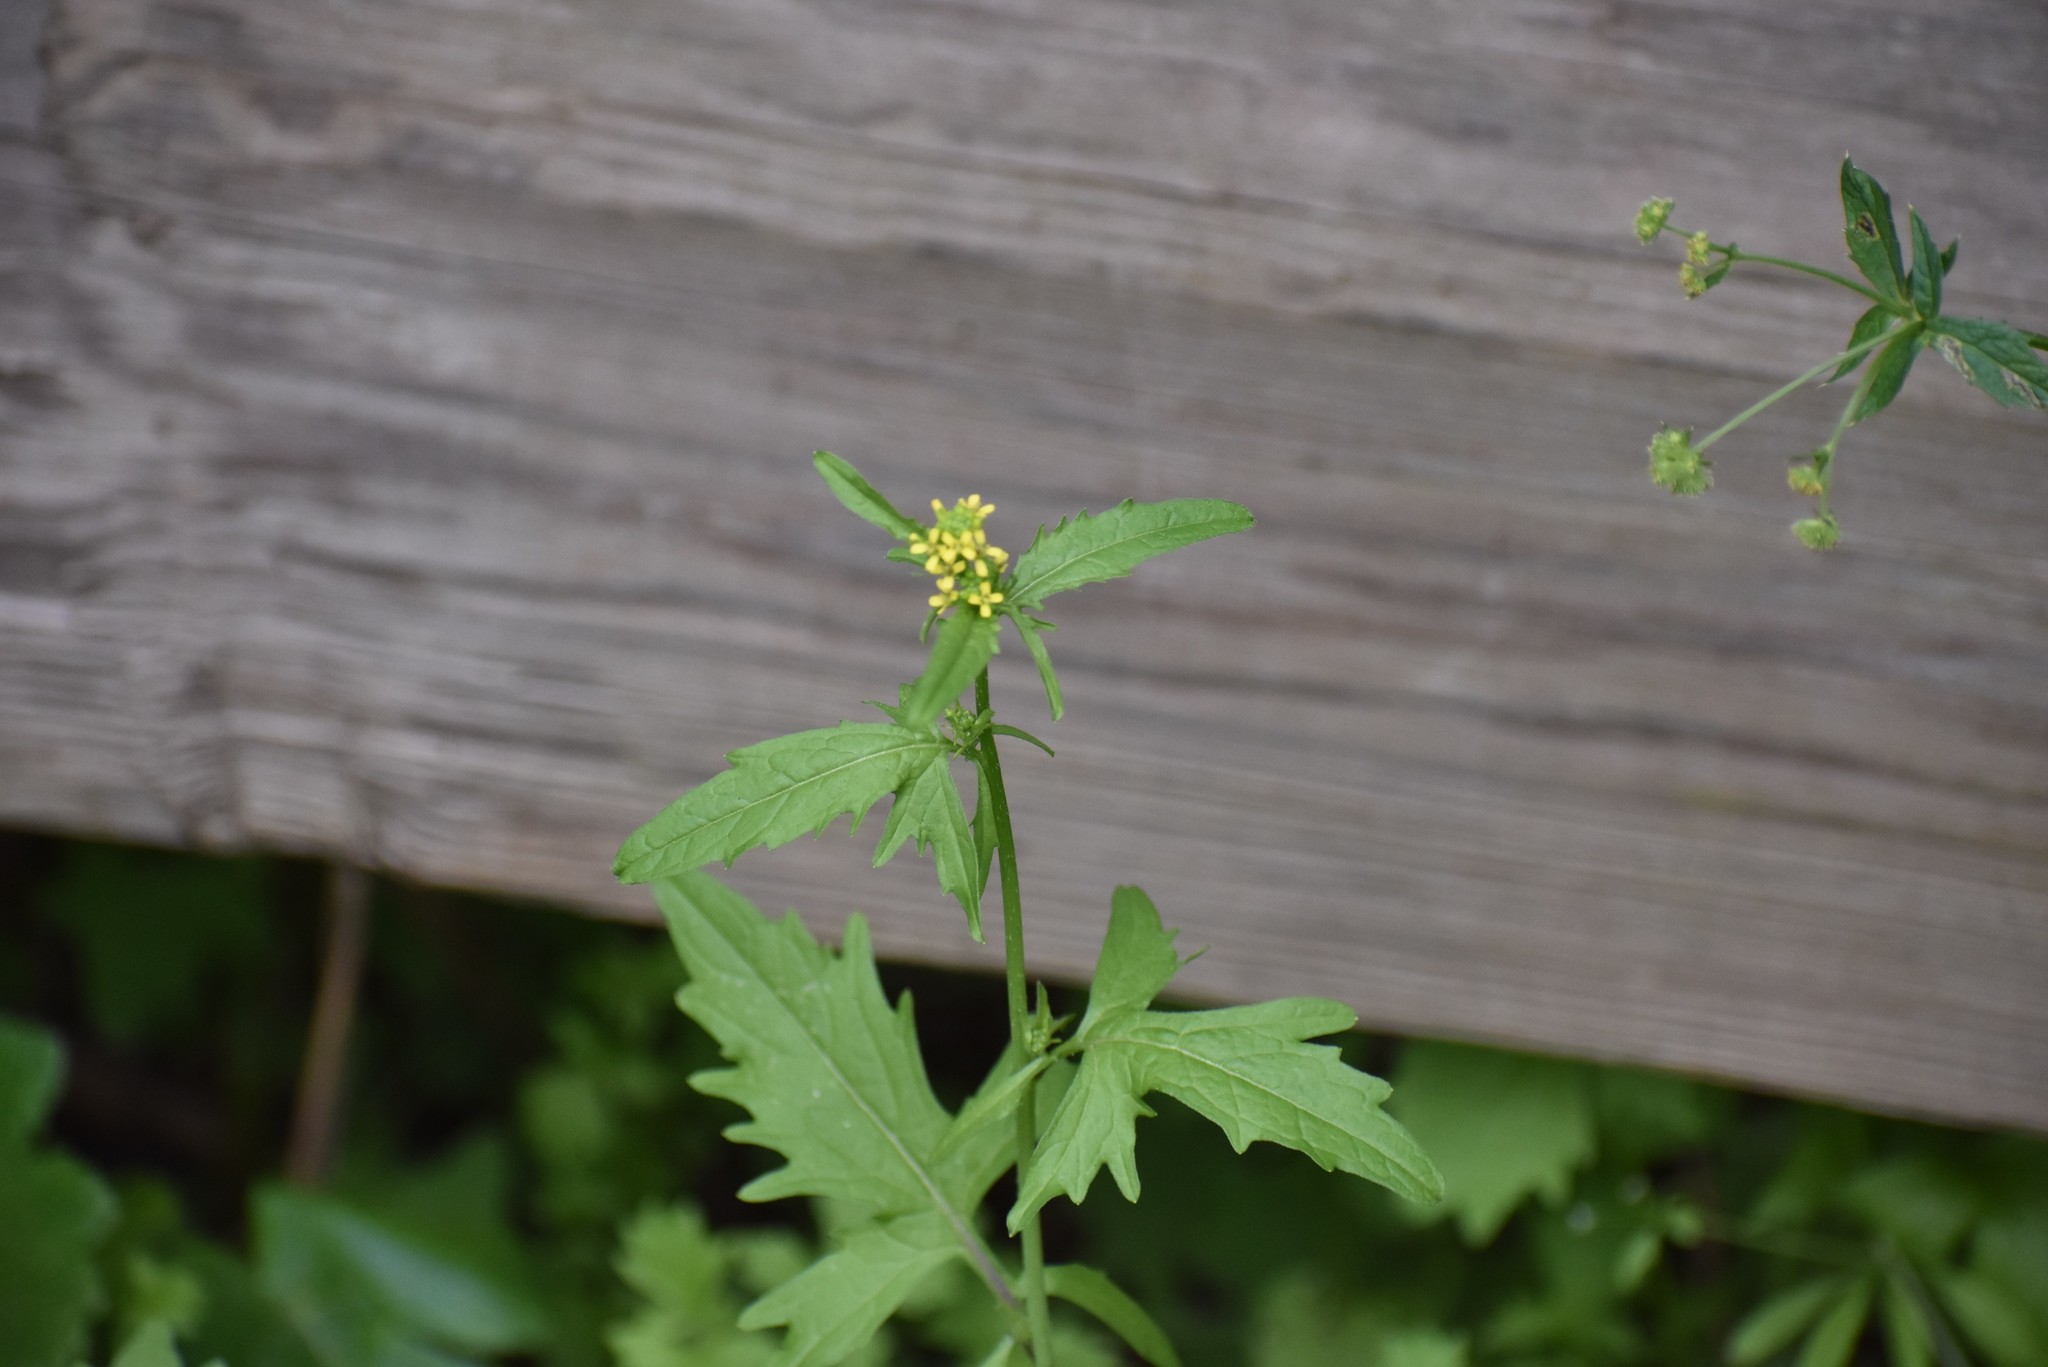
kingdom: Plantae
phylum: Tracheophyta
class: Magnoliopsida
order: Brassicales
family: Brassicaceae
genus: Sisymbrium
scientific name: Sisymbrium officinale
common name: Hedge mustard
